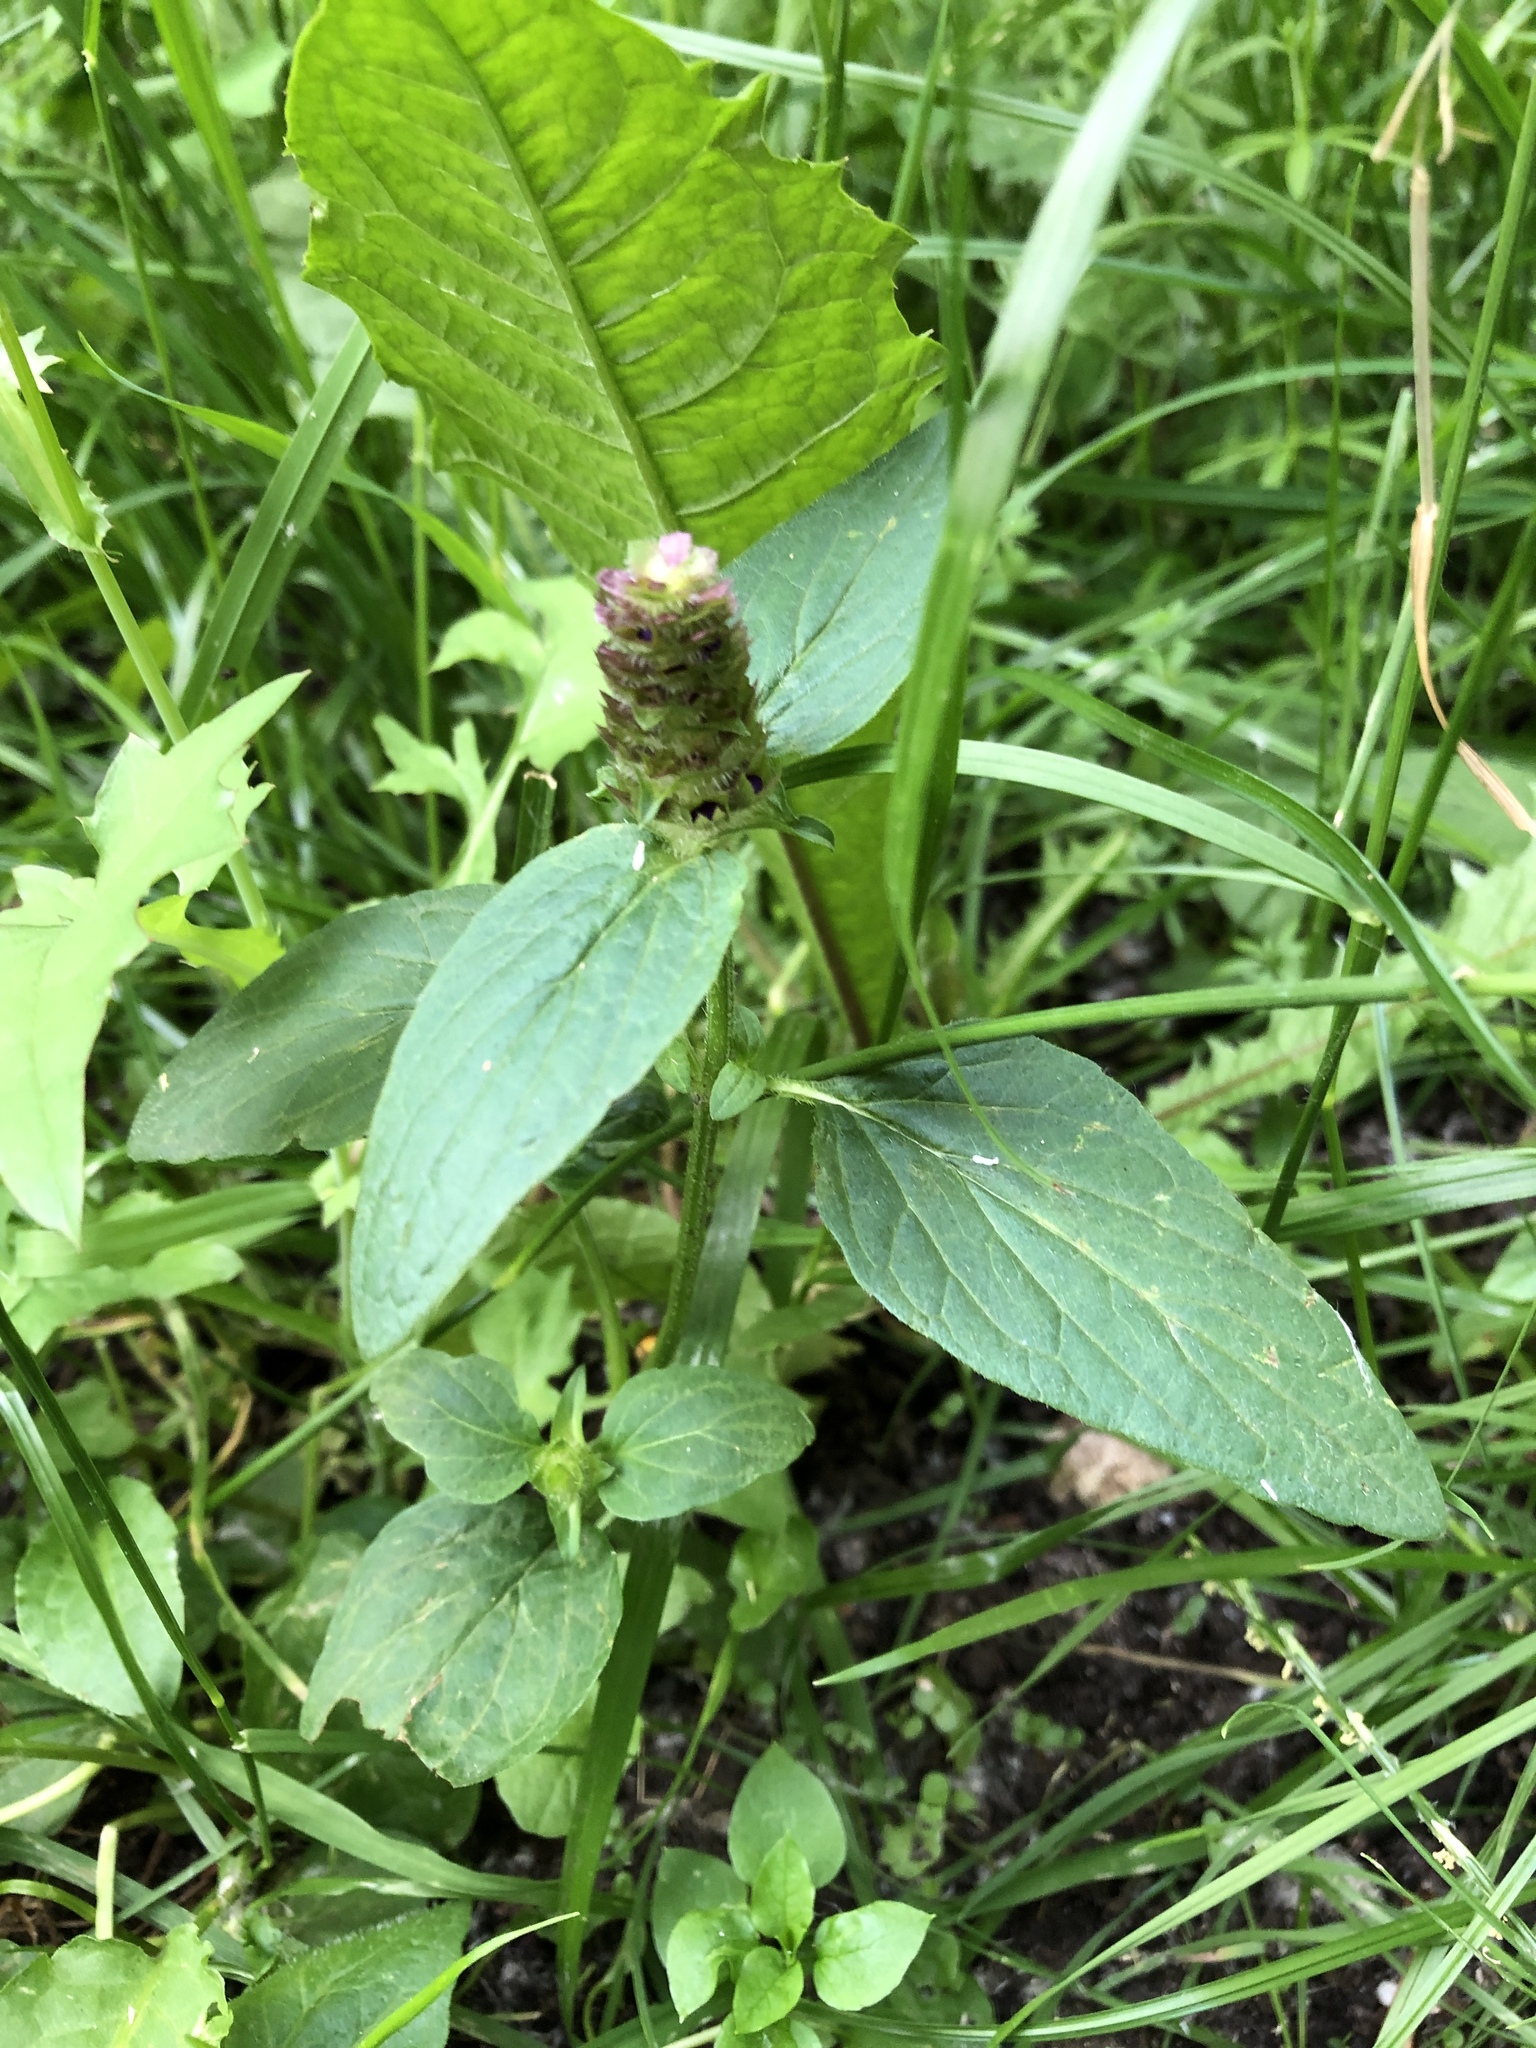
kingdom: Plantae
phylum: Tracheophyta
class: Magnoliopsida
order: Lamiales
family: Lamiaceae
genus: Prunella
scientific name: Prunella vulgaris
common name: Heal-all
